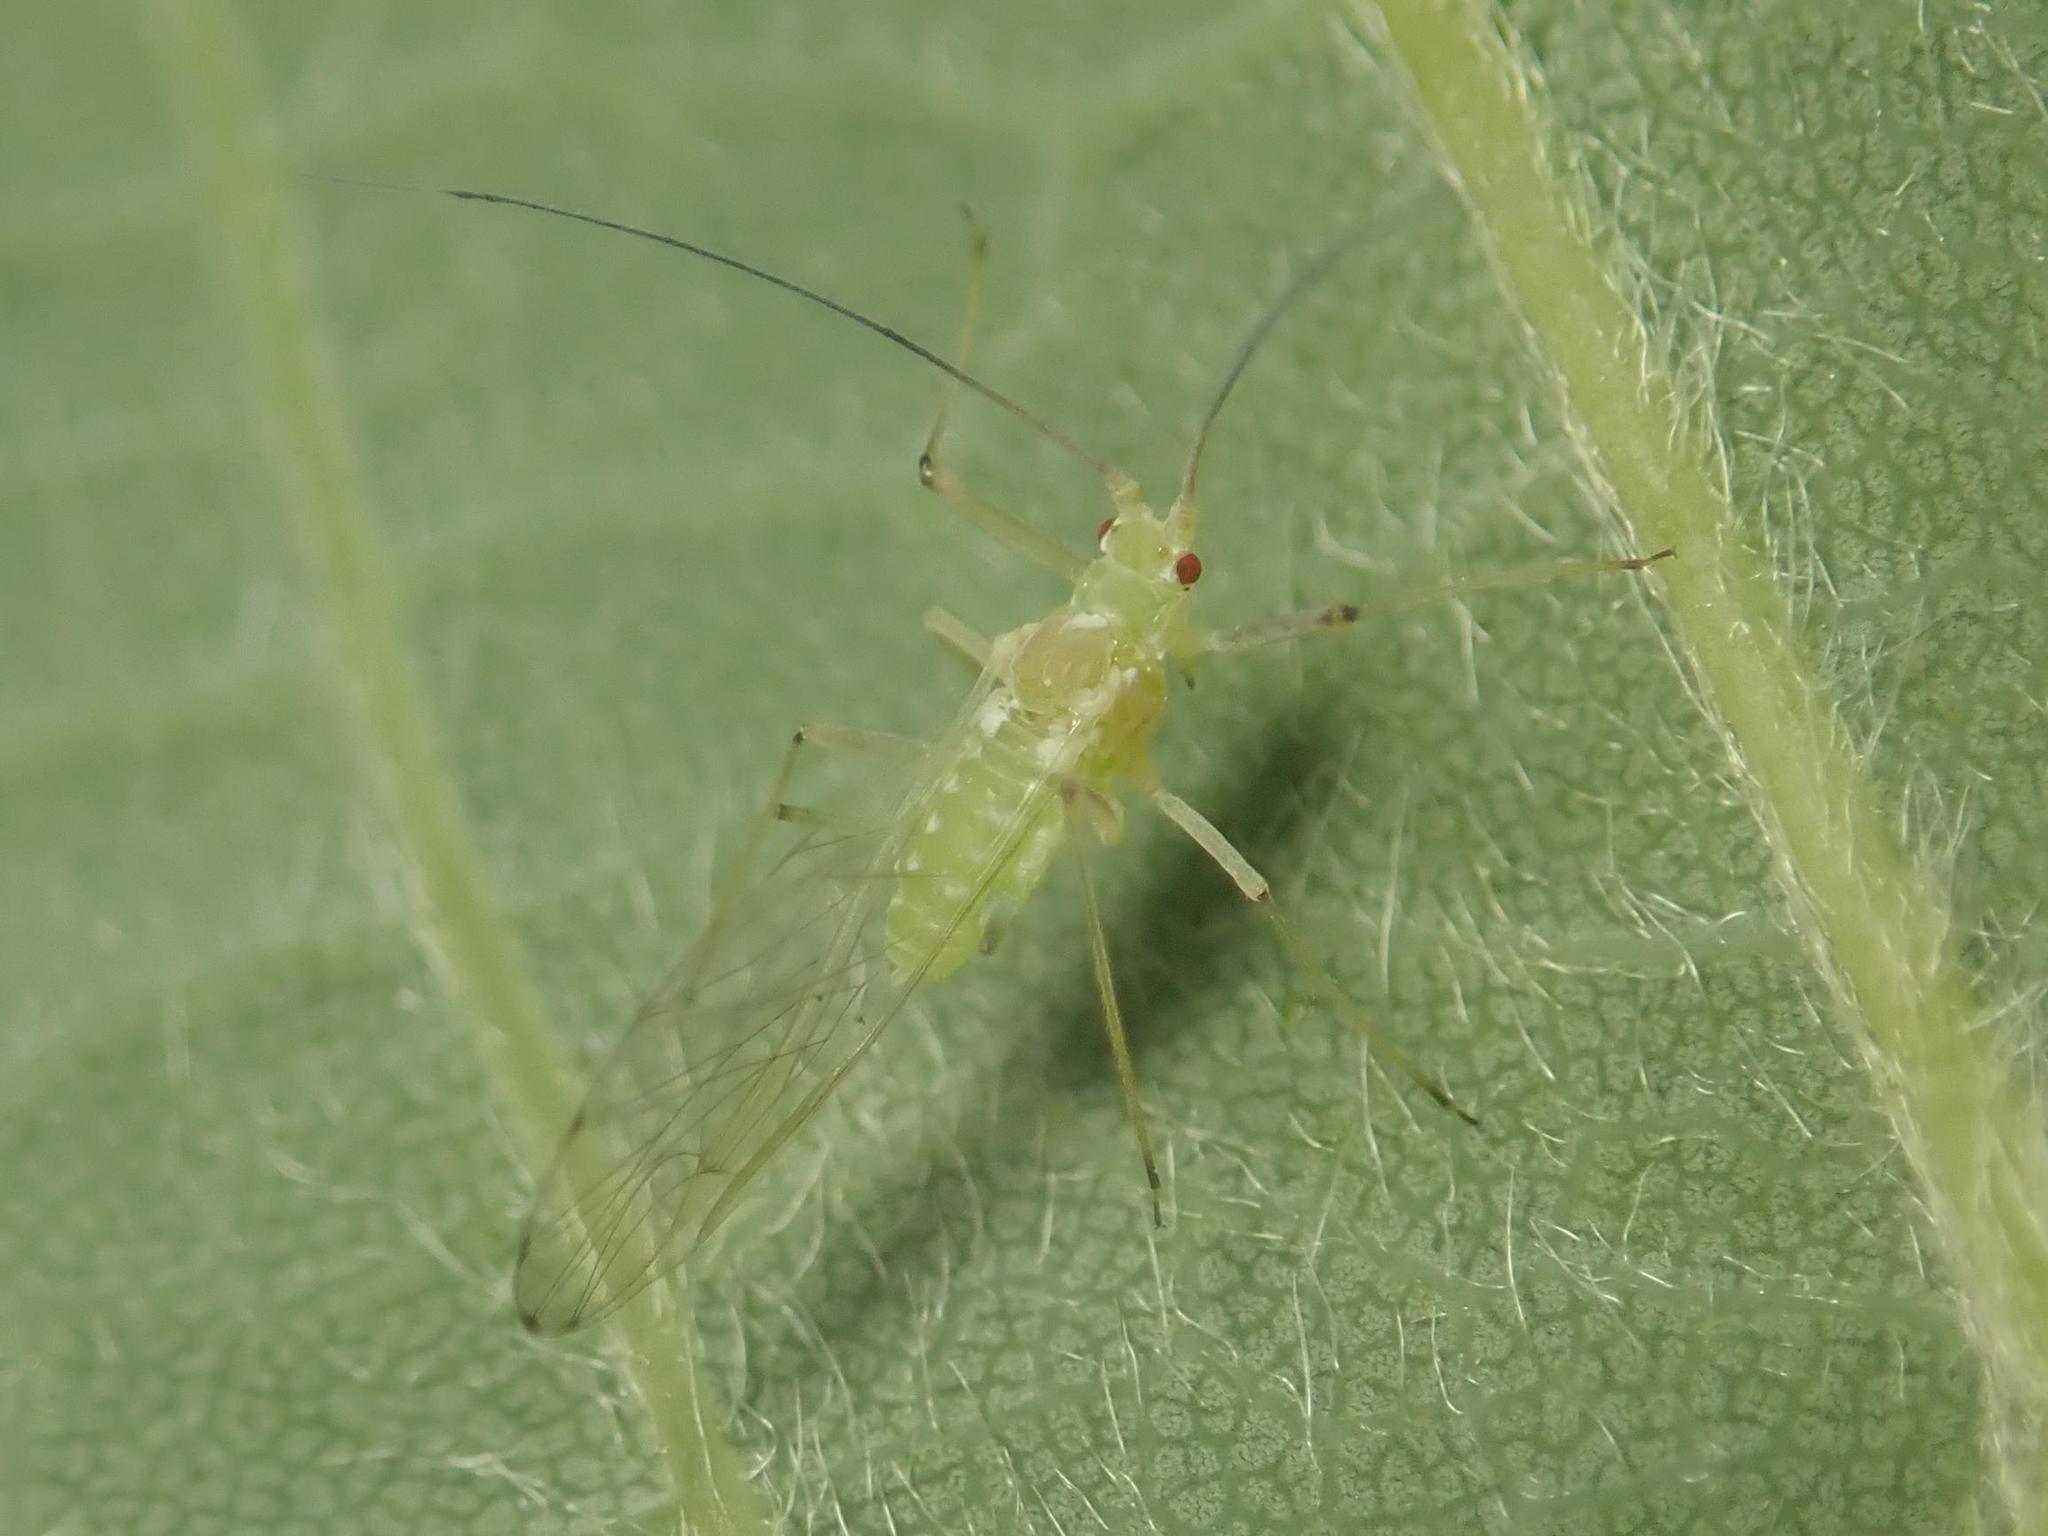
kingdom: Animalia
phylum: Arthropoda
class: Insecta
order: Hemiptera
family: Aphididae
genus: Drepanosiphum
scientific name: Drepanosiphum platanoidis
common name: Common sycamore aphid
